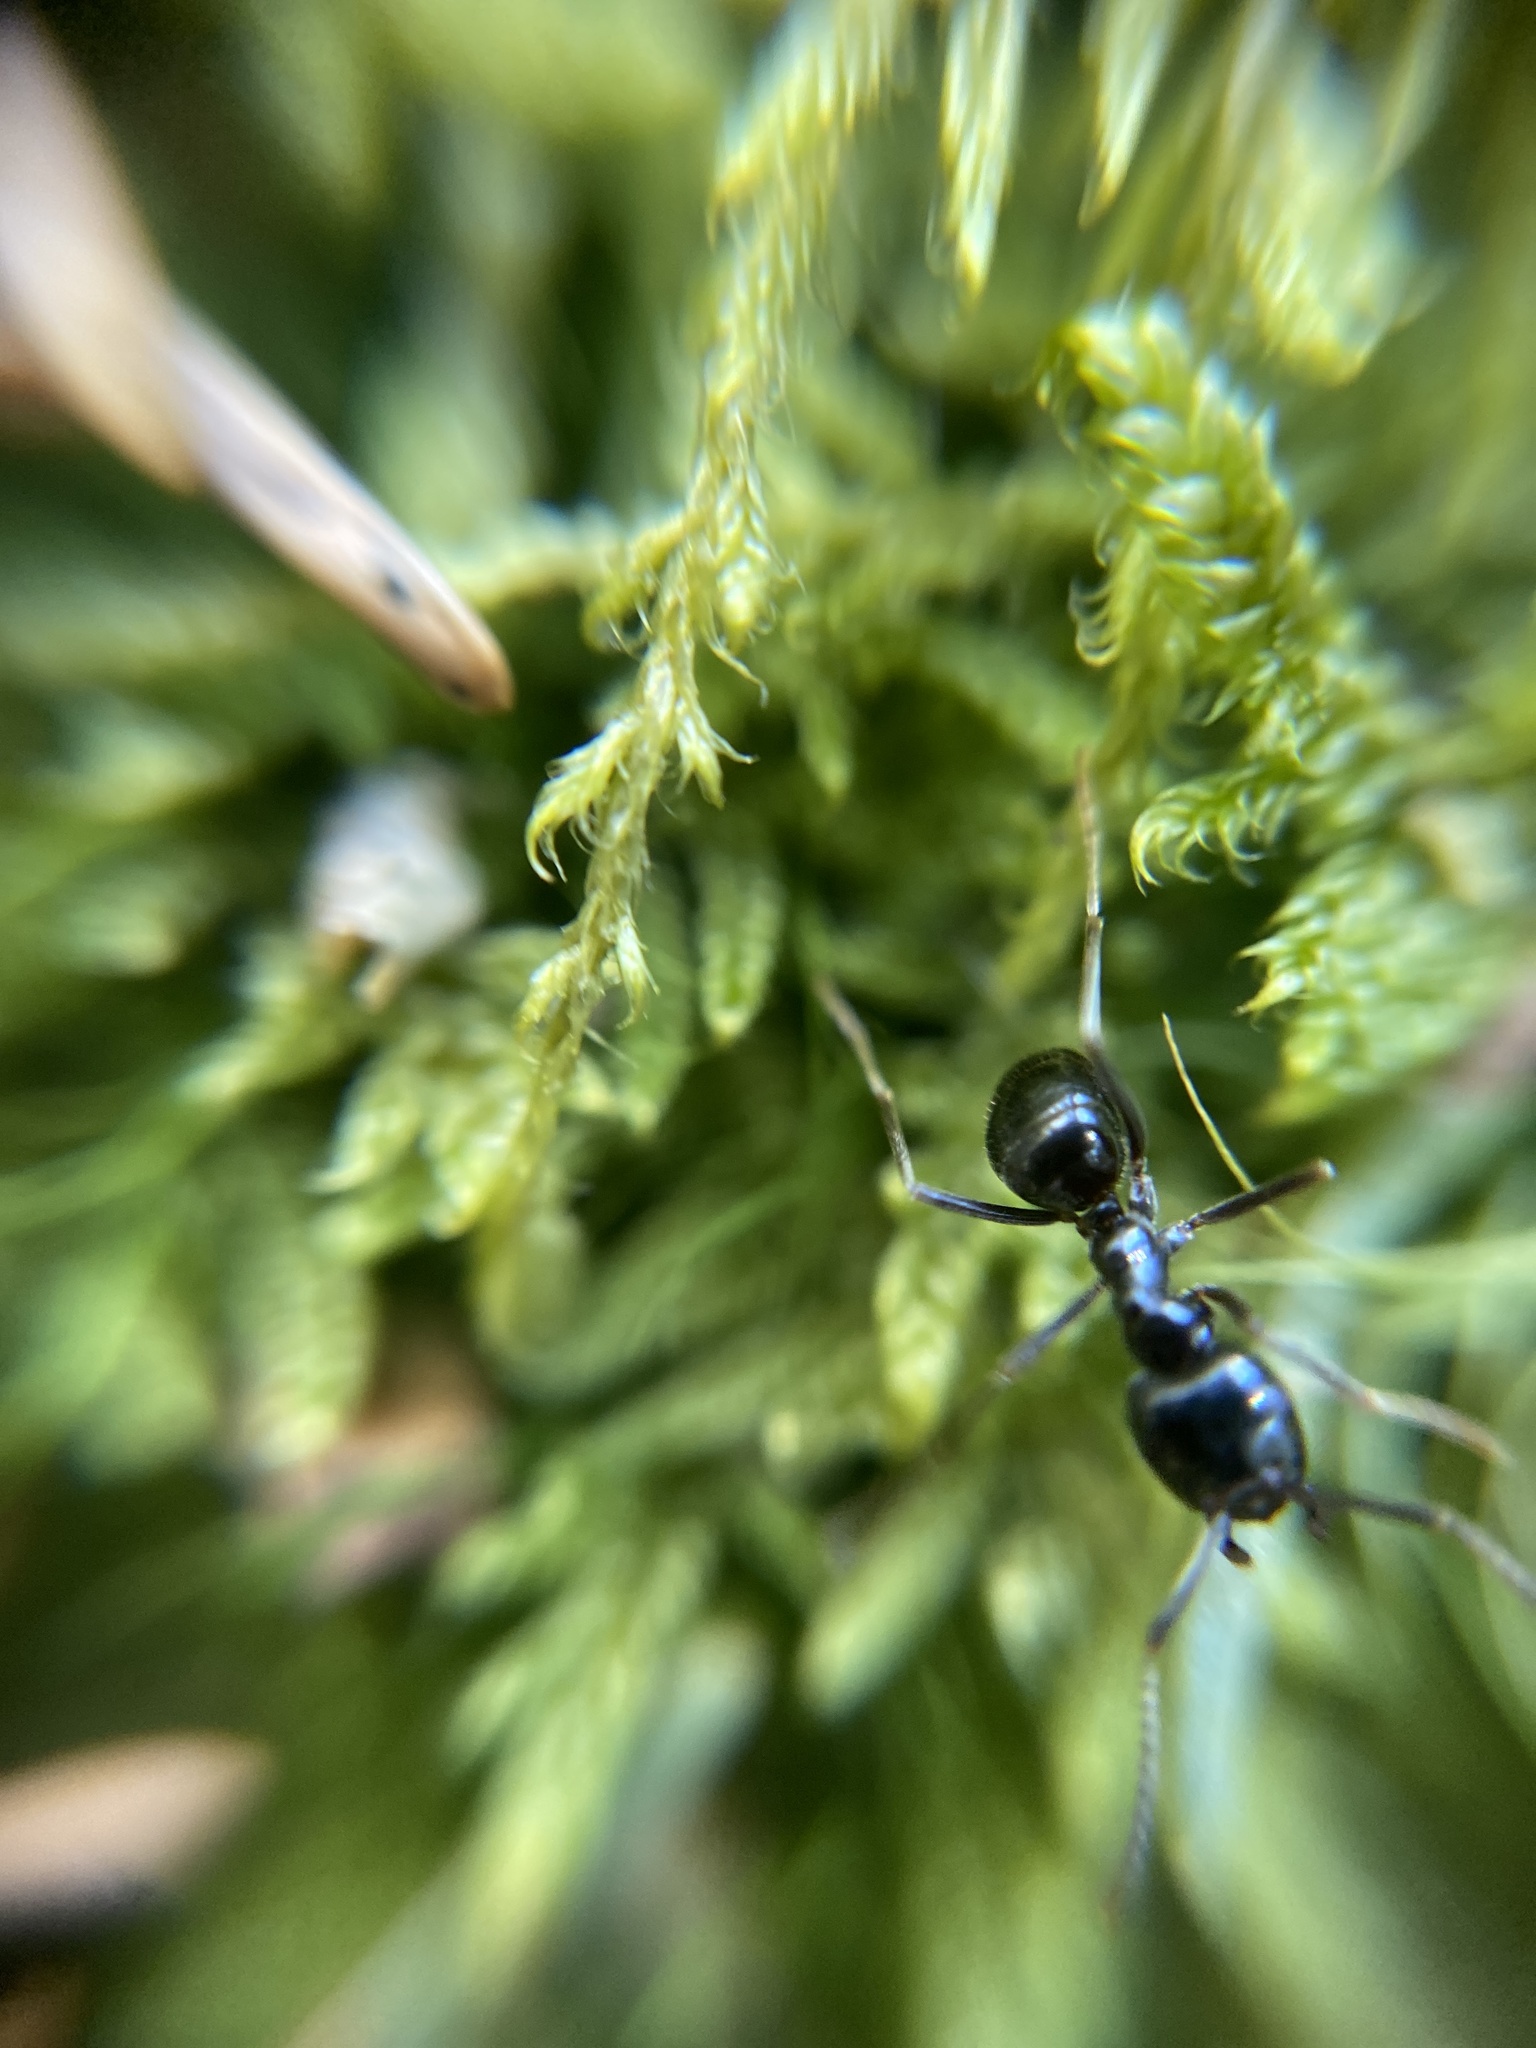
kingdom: Animalia
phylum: Arthropoda
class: Insecta
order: Hymenoptera
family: Formicidae
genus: Lasius
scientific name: Lasius fuliginosus
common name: Jet ant
